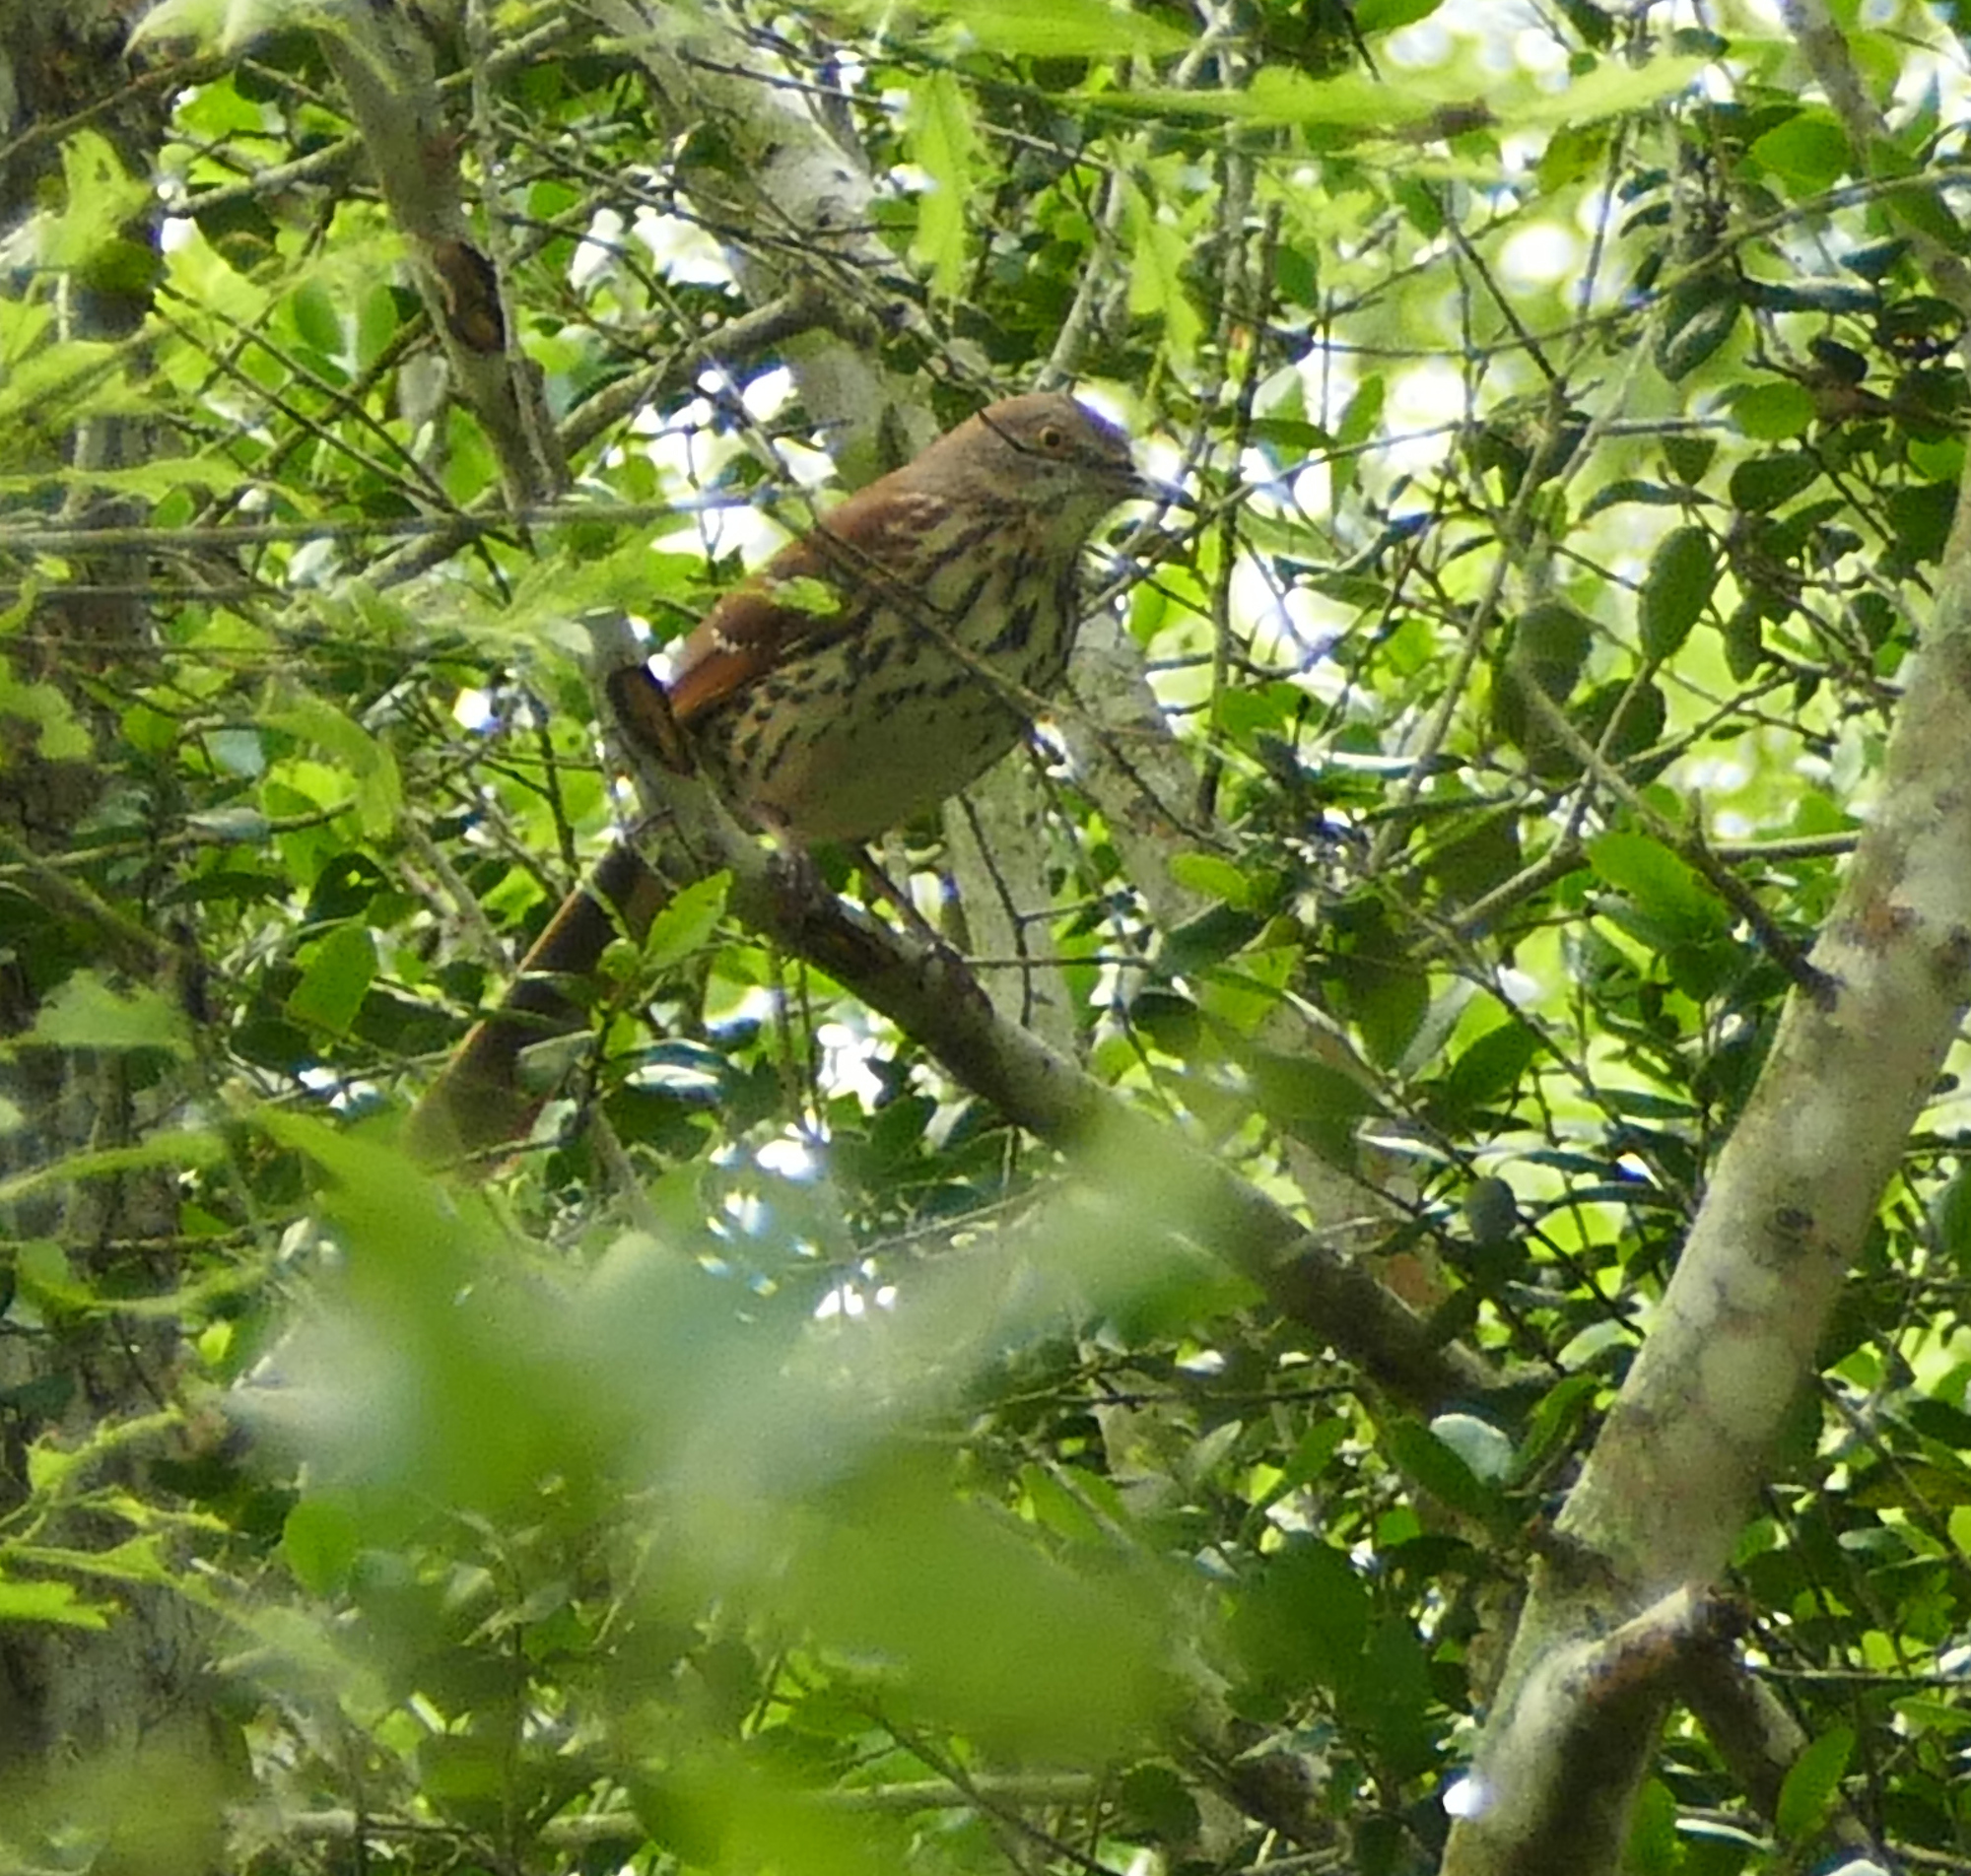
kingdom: Animalia
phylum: Chordata
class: Aves
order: Passeriformes
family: Mimidae
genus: Toxostoma
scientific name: Toxostoma rufum
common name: Brown thrasher
